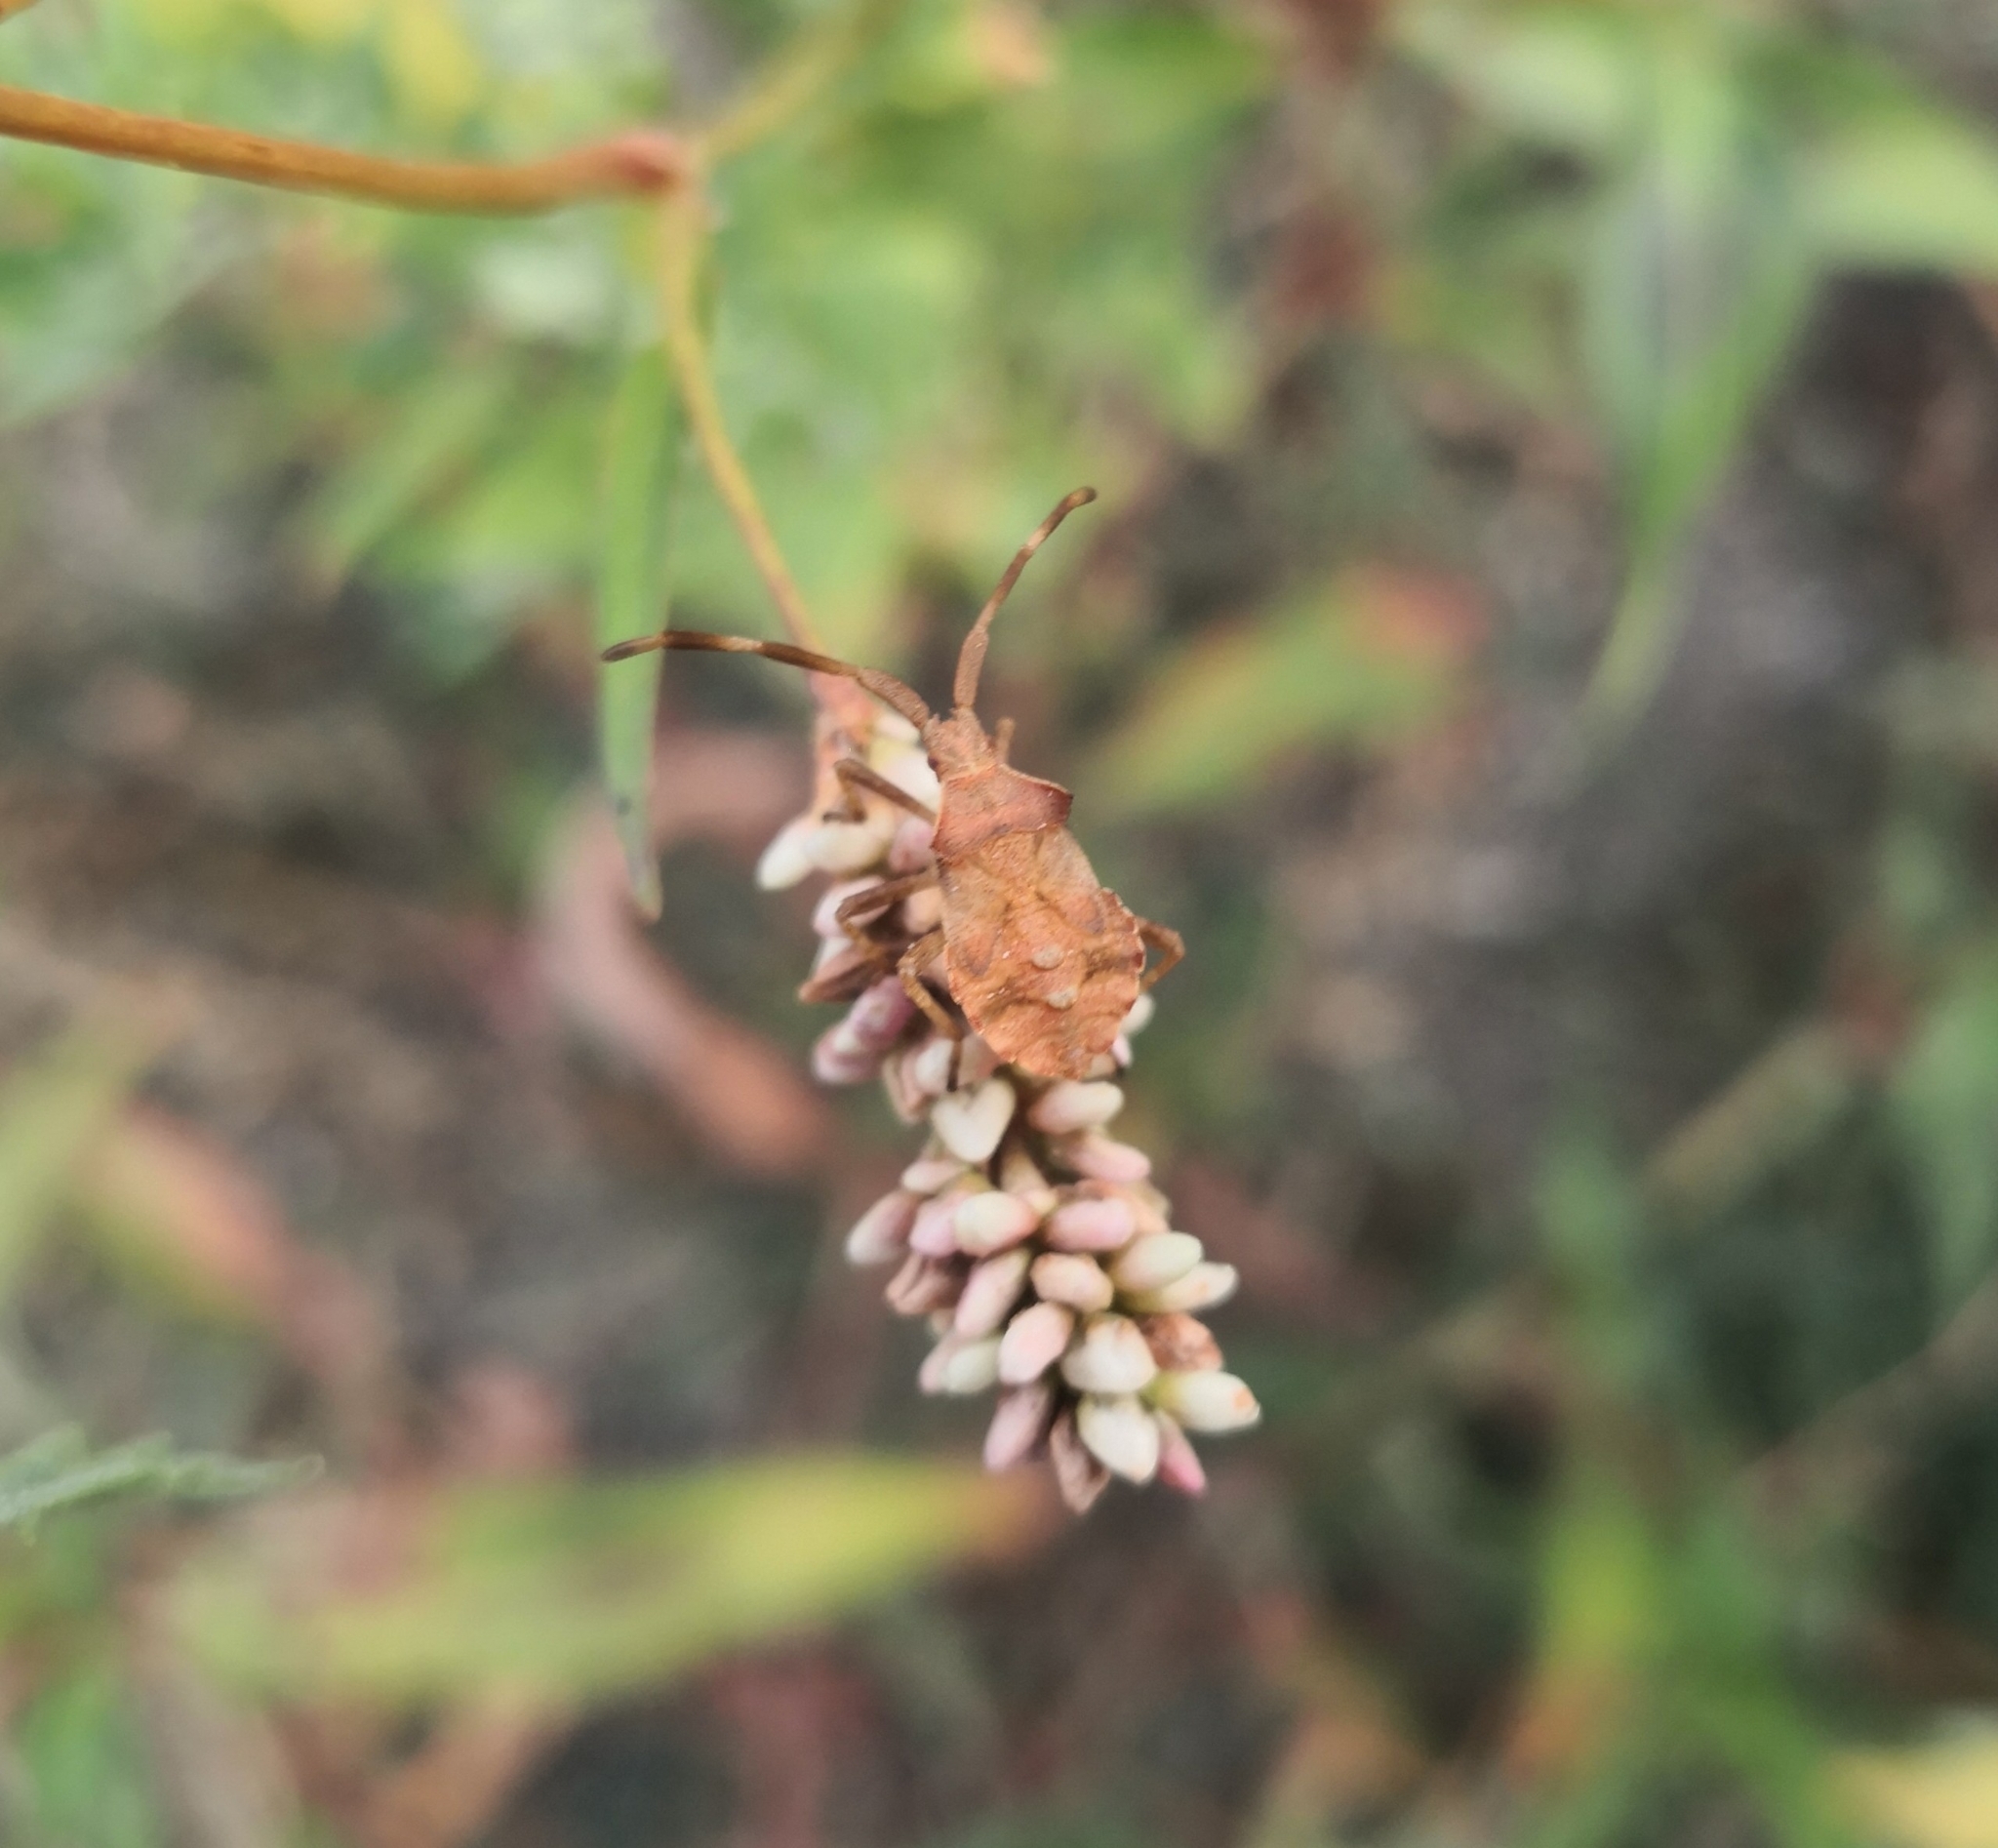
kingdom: Animalia
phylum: Arthropoda
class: Insecta
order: Hemiptera
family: Coreidae
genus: Coreus
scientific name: Coreus marginatus
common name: Dock bug
